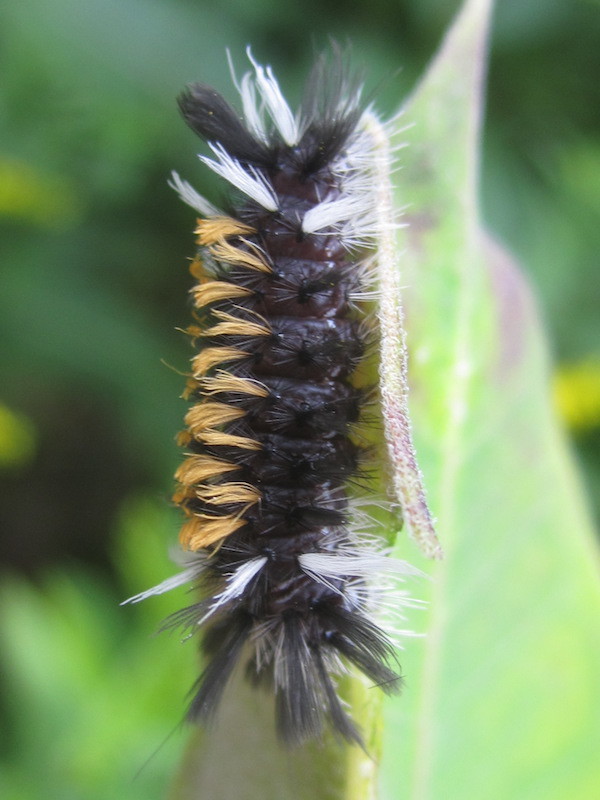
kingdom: Animalia
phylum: Arthropoda
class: Insecta
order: Lepidoptera
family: Erebidae
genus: Euchaetes
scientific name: Euchaetes egle
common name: Milkweed tussock moth
